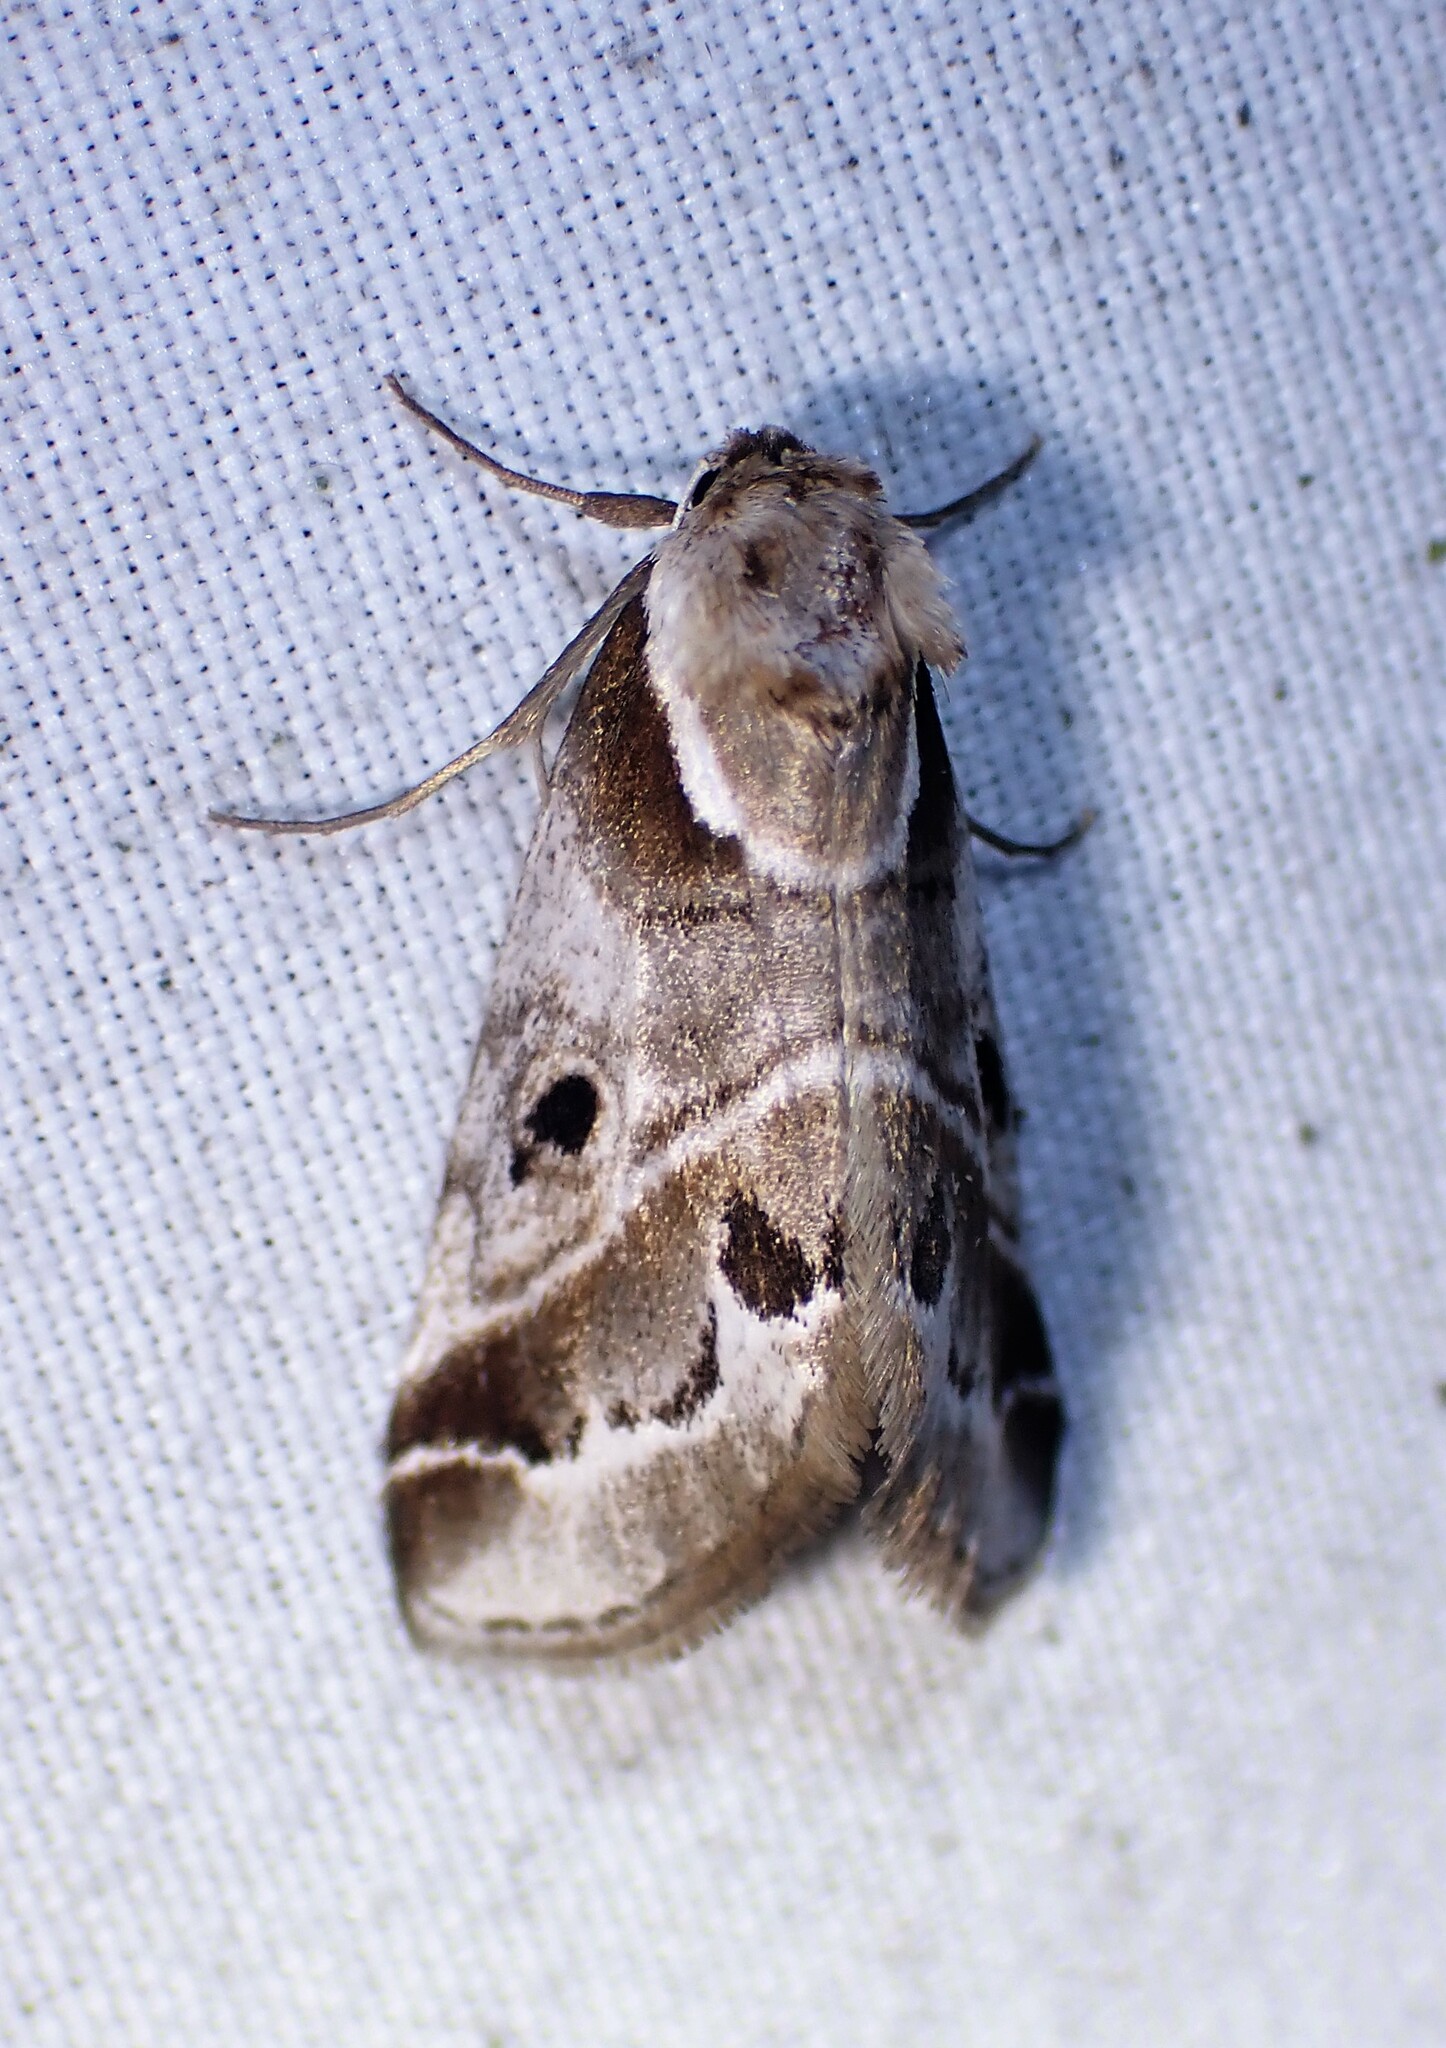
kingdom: Animalia
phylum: Arthropoda
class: Insecta
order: Lepidoptera
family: Nolidae
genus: Baileya
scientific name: Baileya doubledayi
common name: Doubleday's baileya moth
